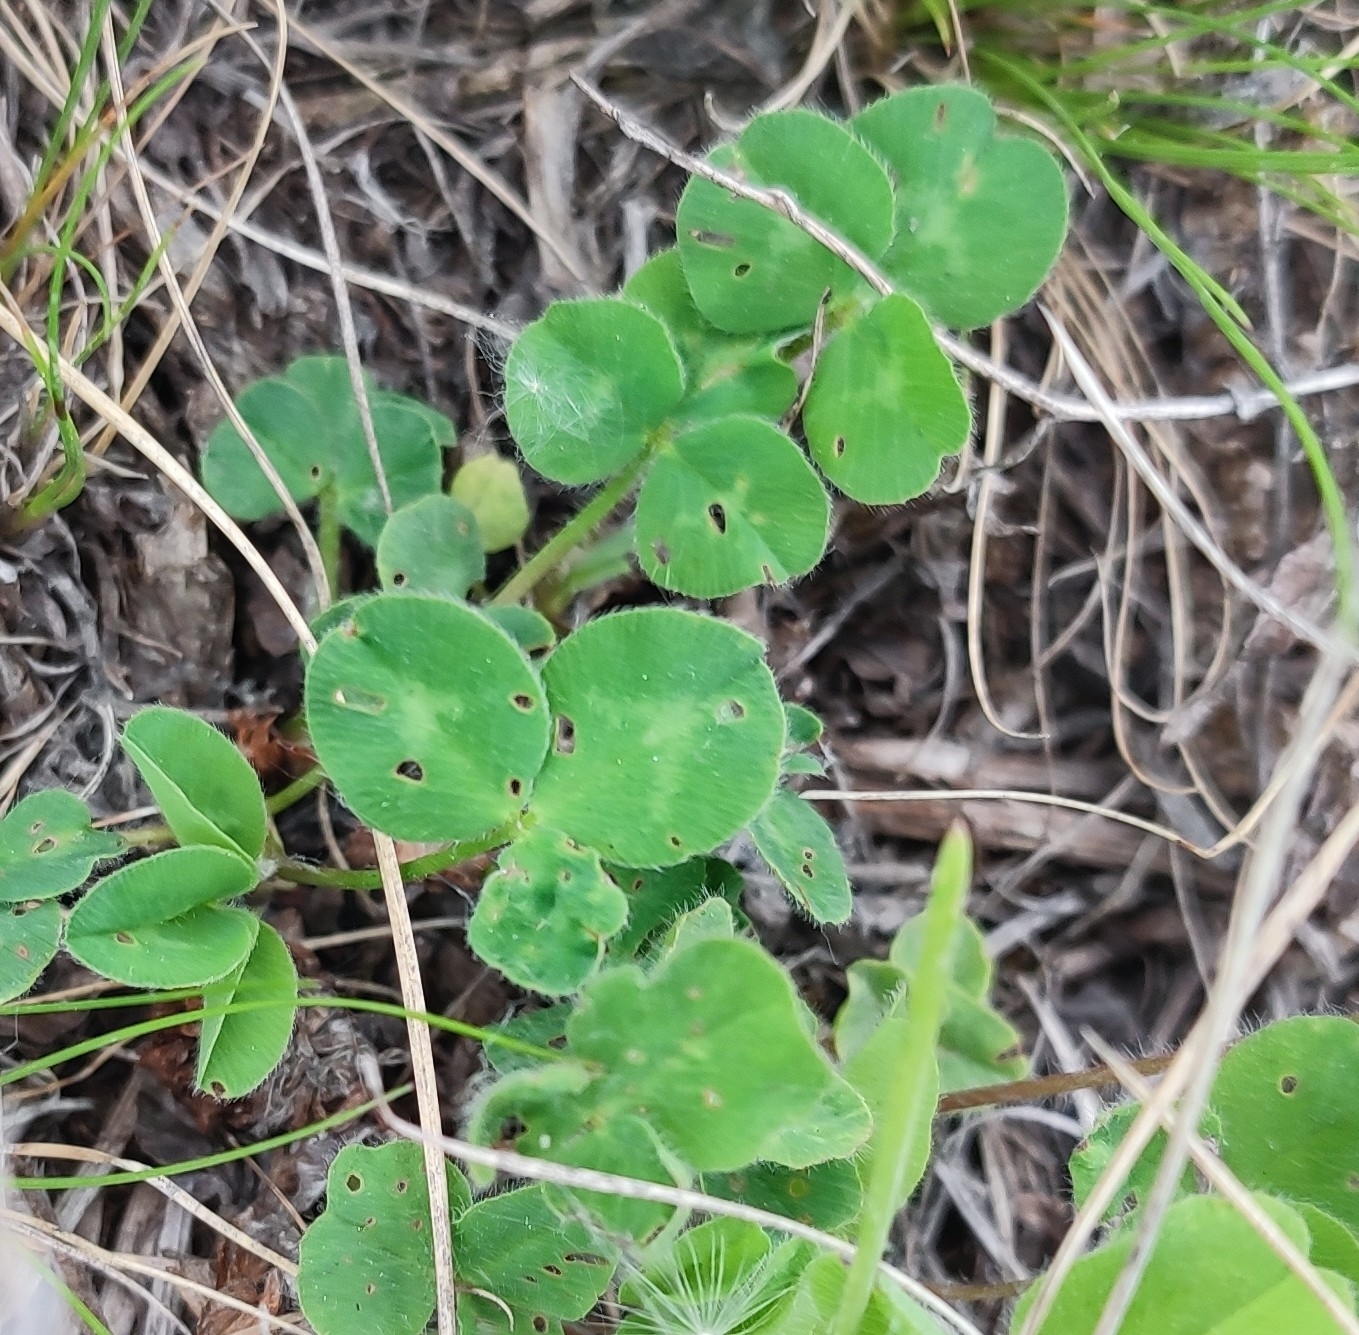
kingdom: Plantae
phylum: Tracheophyta
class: Magnoliopsida
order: Fabales
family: Fabaceae
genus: Trifolium
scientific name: Trifolium pratense
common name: Red clover
